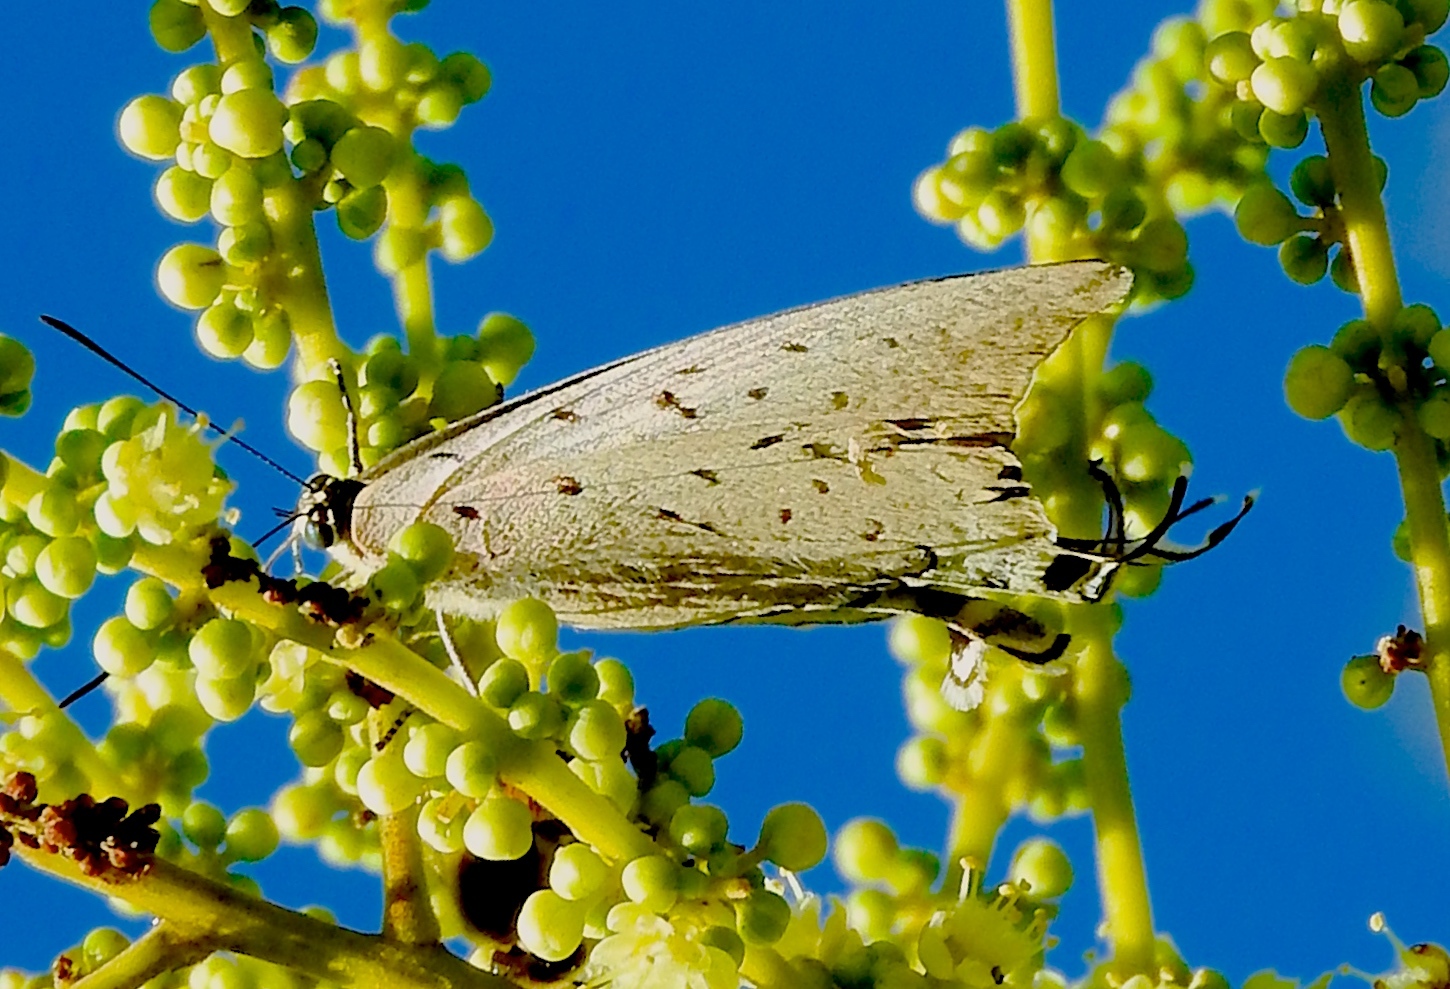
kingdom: Animalia
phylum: Arthropoda
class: Insecta
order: Lepidoptera
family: Lycaenidae
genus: Pseudolycaena
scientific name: Pseudolycaena damo
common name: Sky-blue hairstreak
